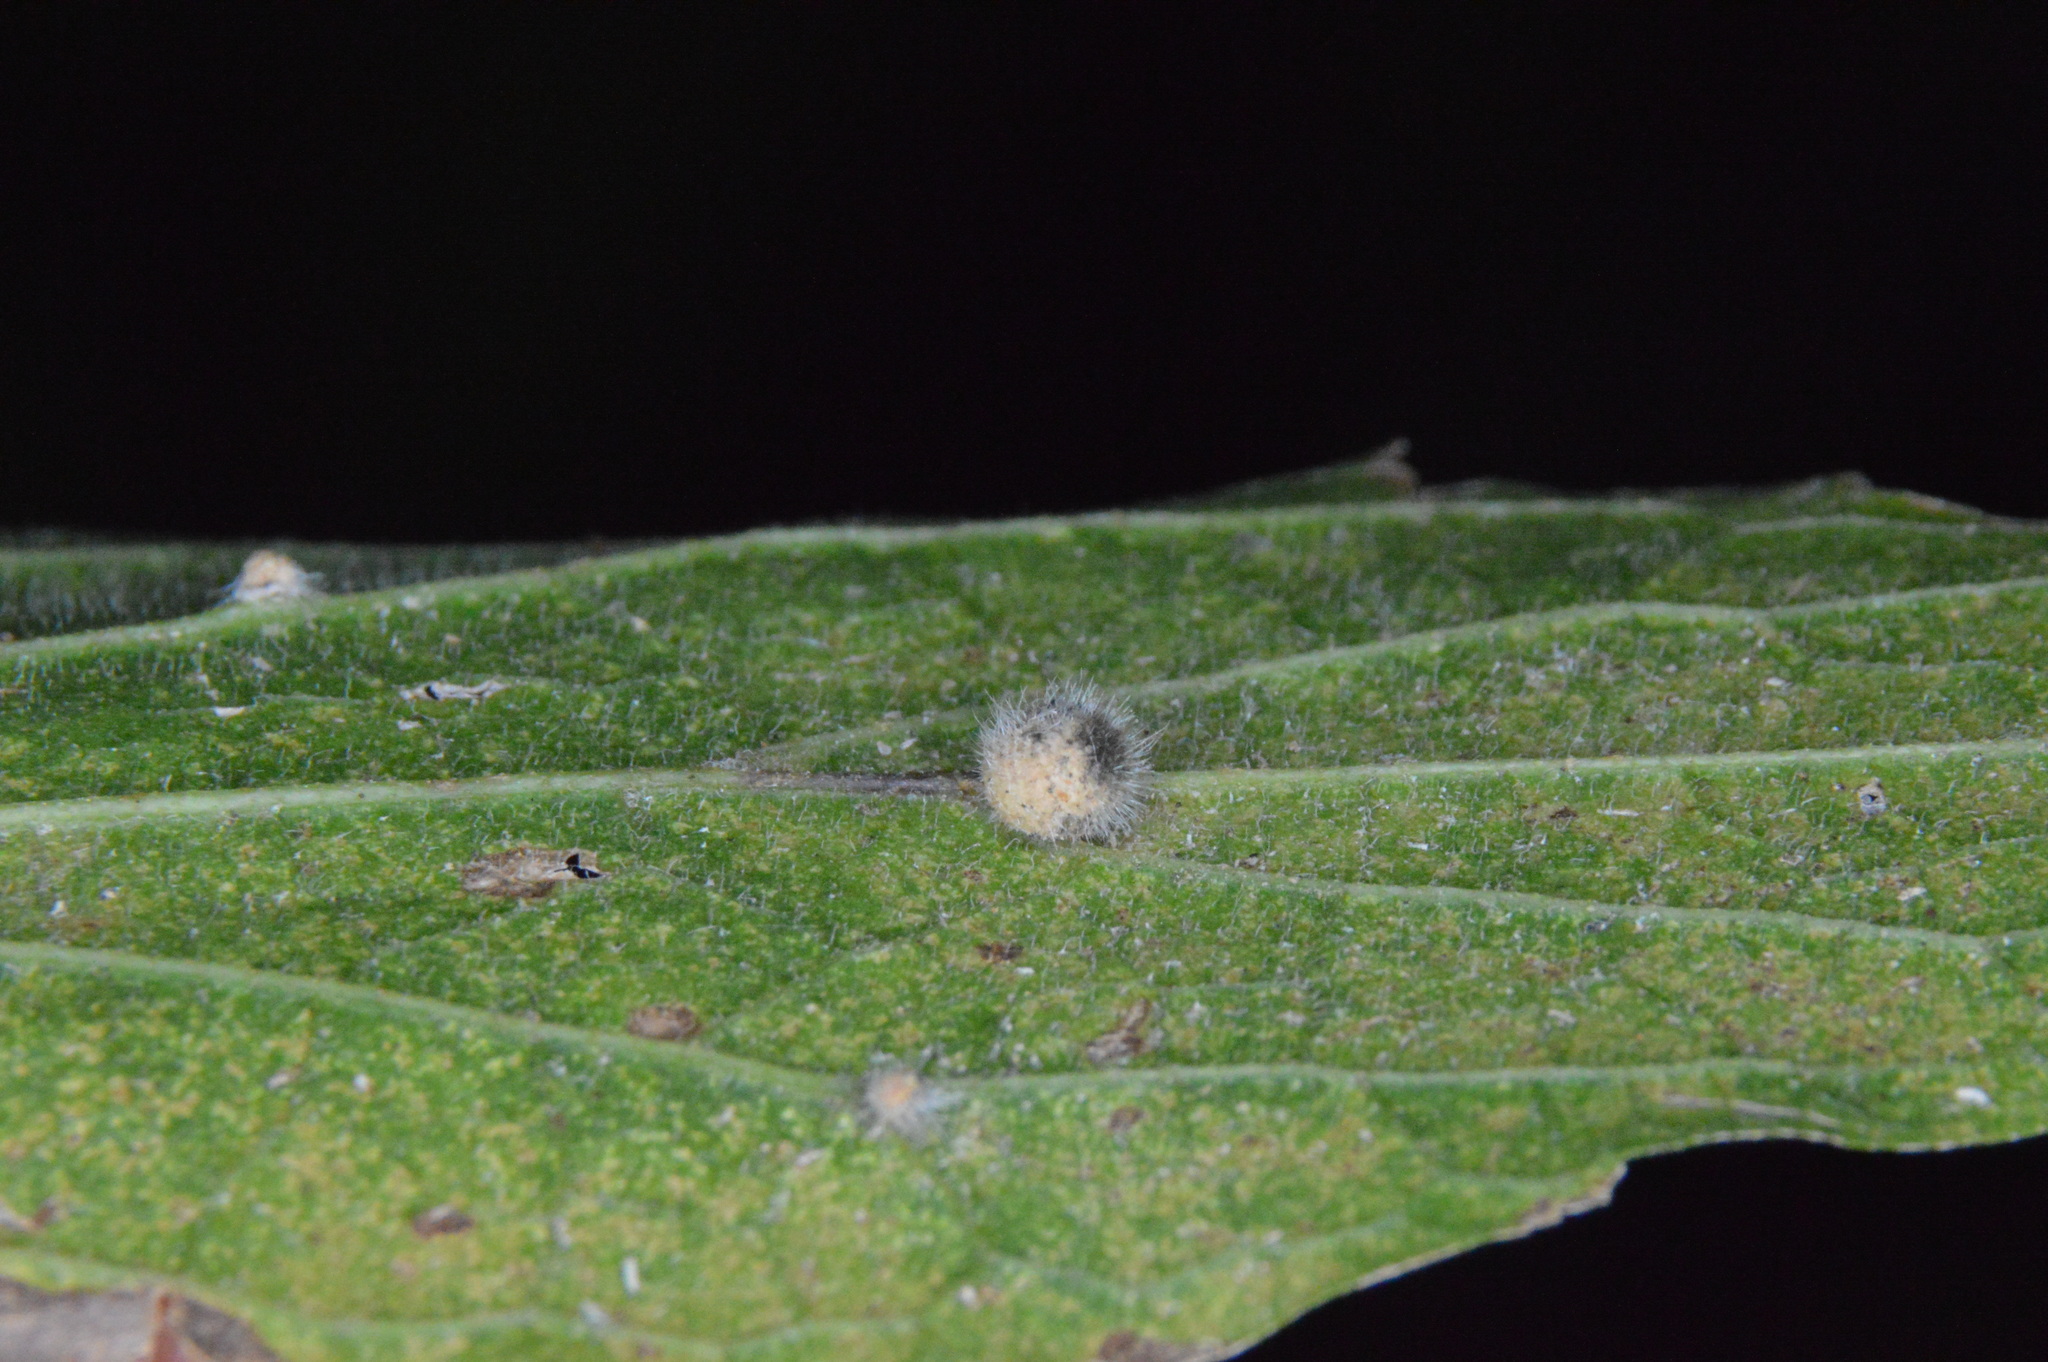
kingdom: Animalia
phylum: Arthropoda
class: Insecta
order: Diptera
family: Cecidomyiidae
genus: Celticecis
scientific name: Celticecis pubescens
